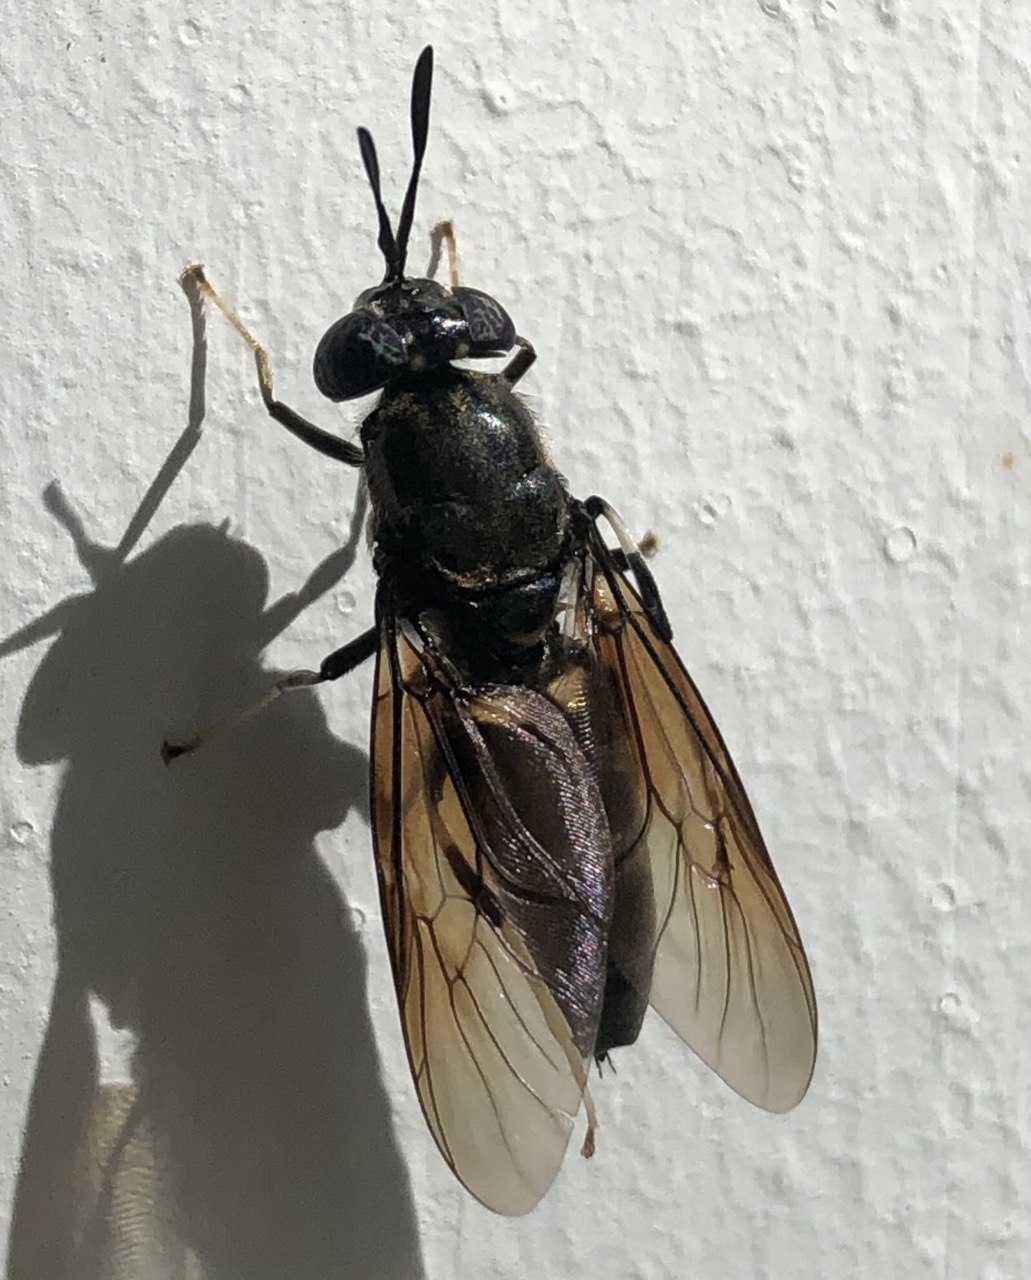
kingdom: Animalia
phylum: Arthropoda
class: Insecta
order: Diptera
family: Stratiomyidae
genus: Hermetia
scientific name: Hermetia illucens
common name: Black soldier fly
